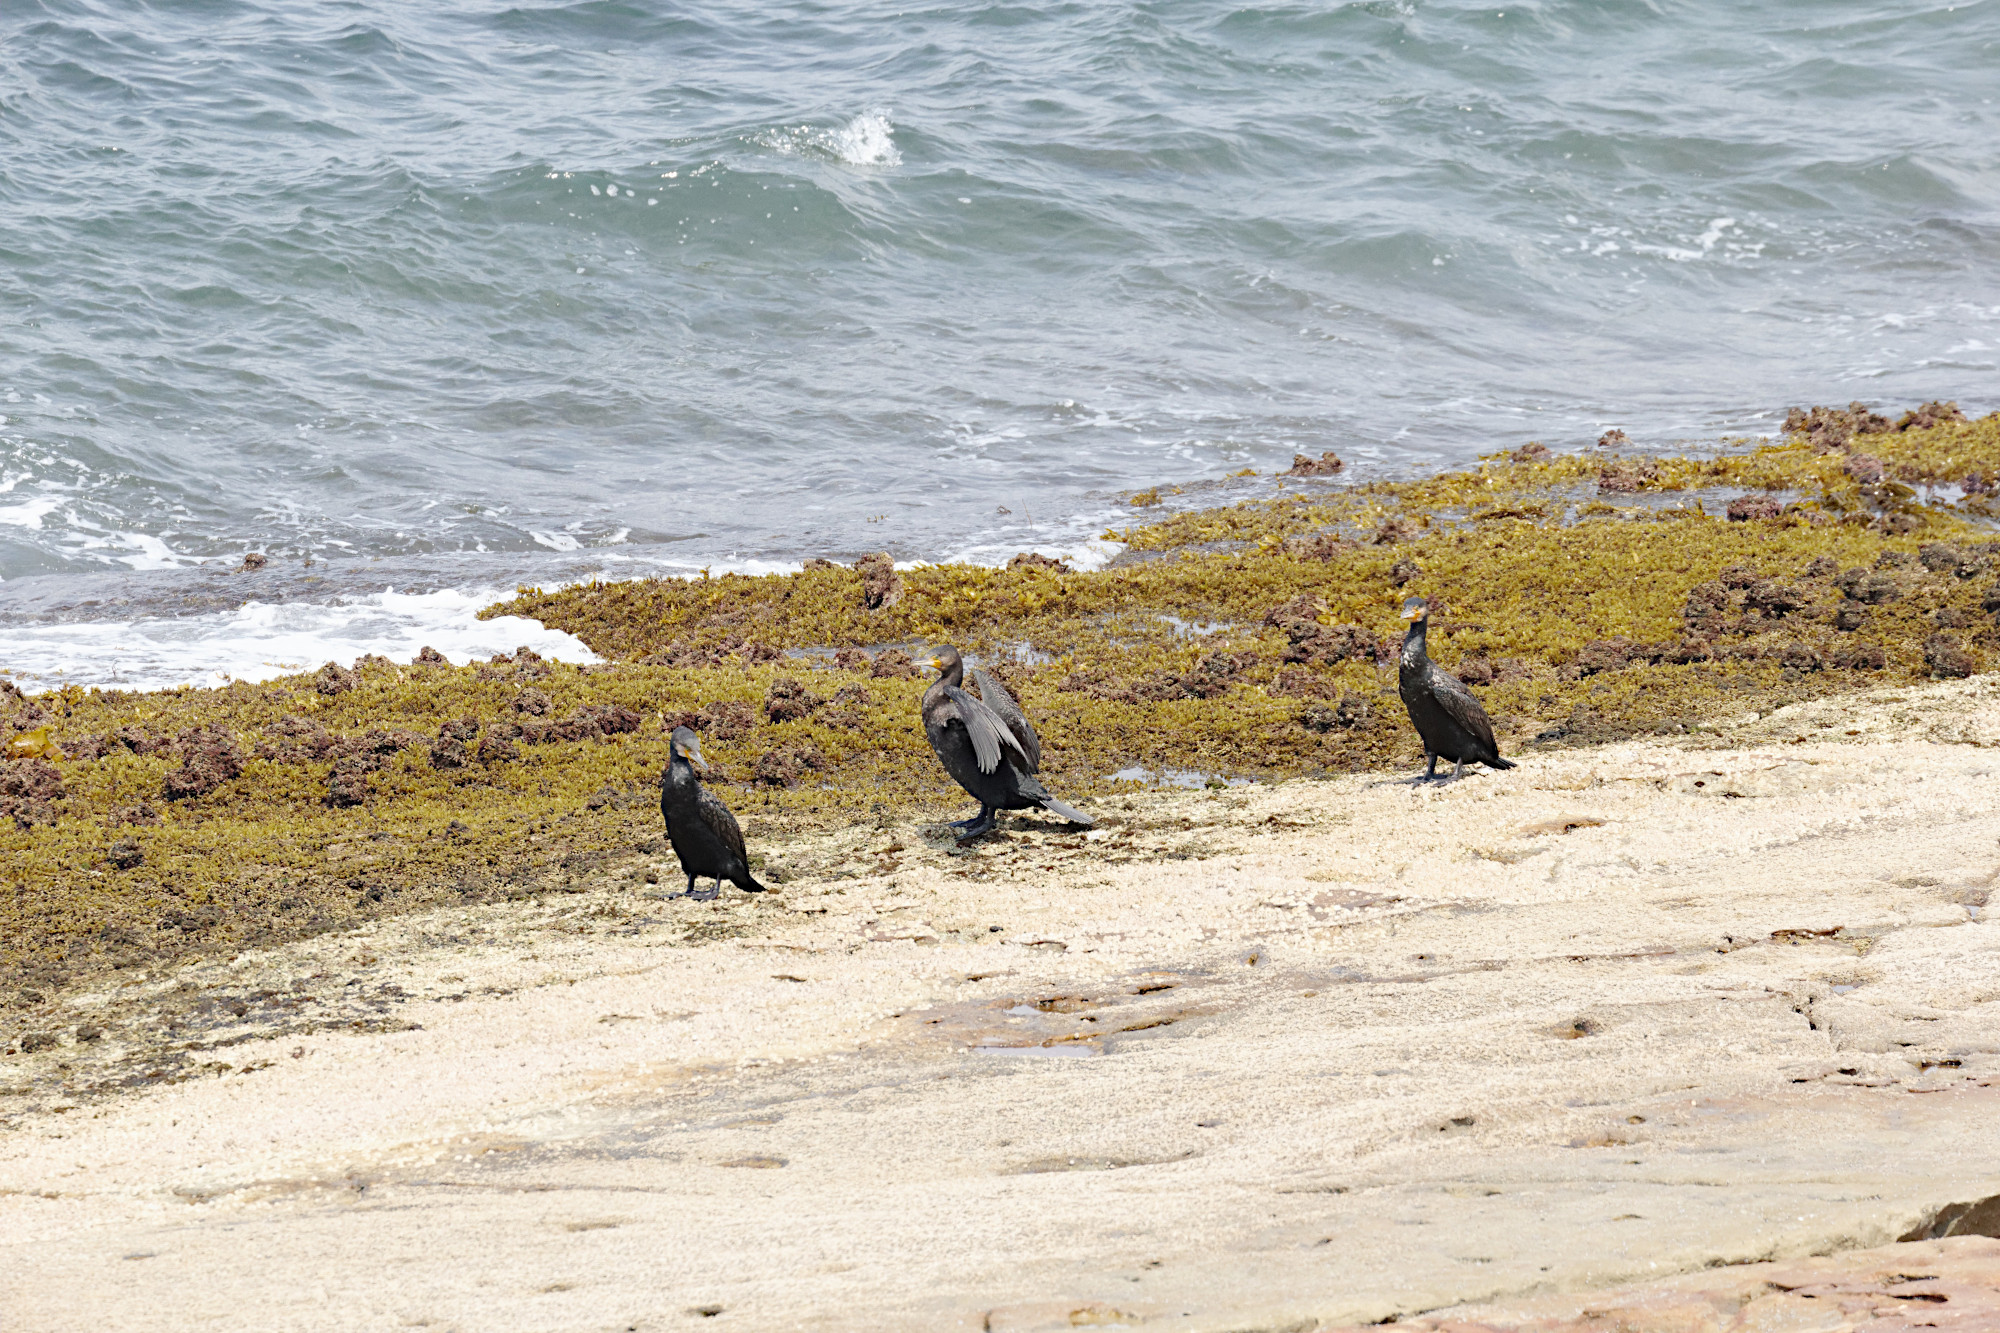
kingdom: Animalia
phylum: Chordata
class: Aves
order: Suliformes
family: Phalacrocoracidae
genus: Phalacrocorax
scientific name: Phalacrocorax carbo
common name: Great cormorant
